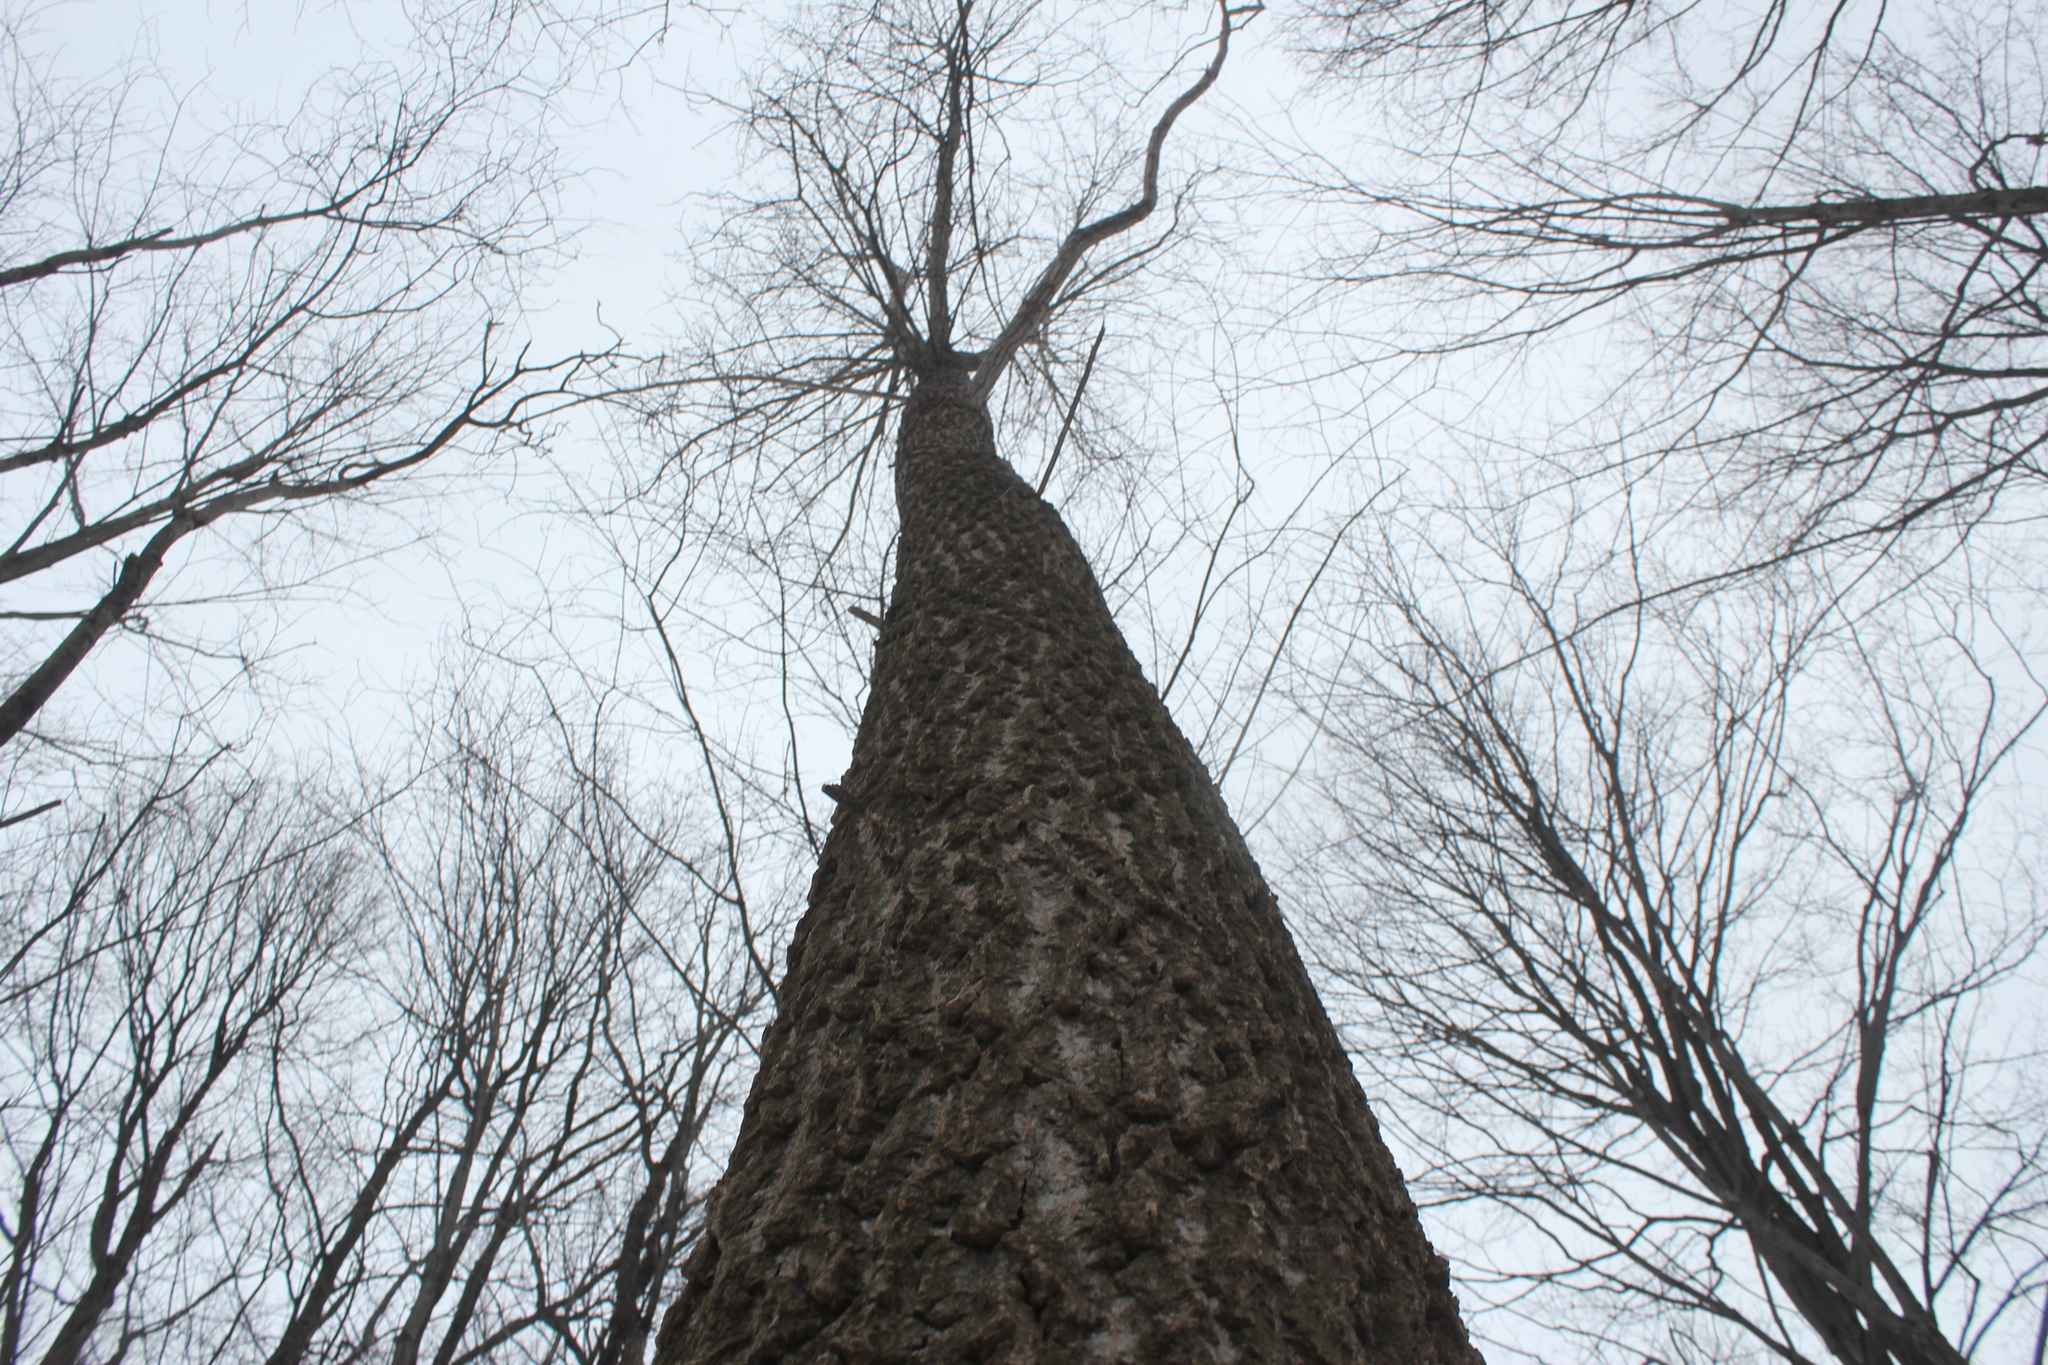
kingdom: Plantae
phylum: Tracheophyta
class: Magnoliopsida
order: Malpighiales
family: Salicaceae
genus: Populus
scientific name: Populus deltoides
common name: Eastern cottonwood
